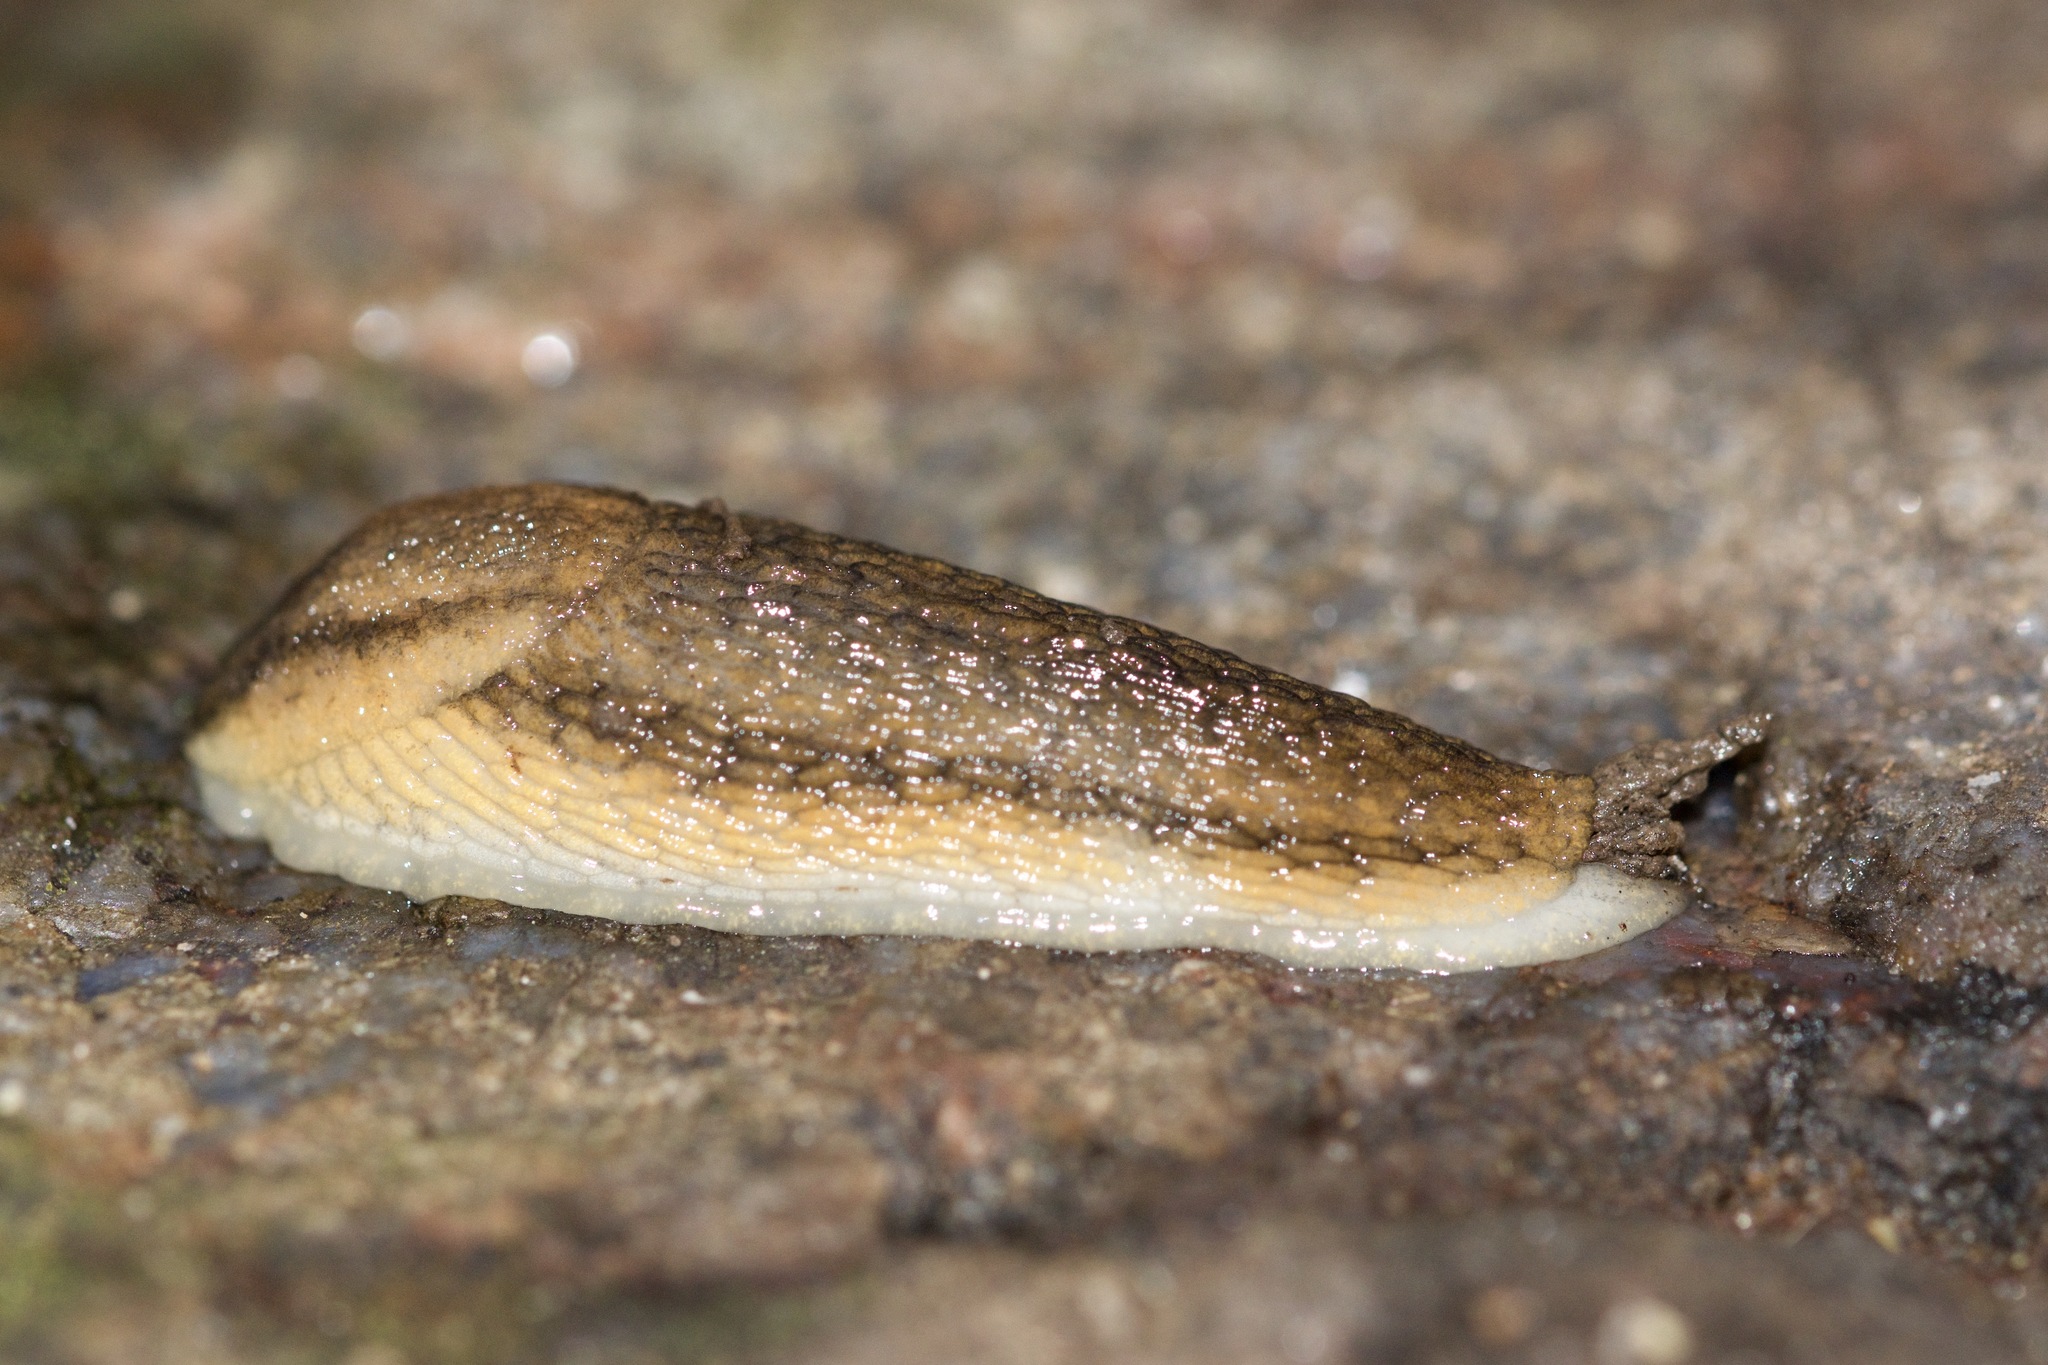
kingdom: Animalia
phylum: Mollusca
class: Gastropoda
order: Stylommatophora
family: Arionidae
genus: Arion
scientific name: Arion fasciatus
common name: Orange-banded arion
